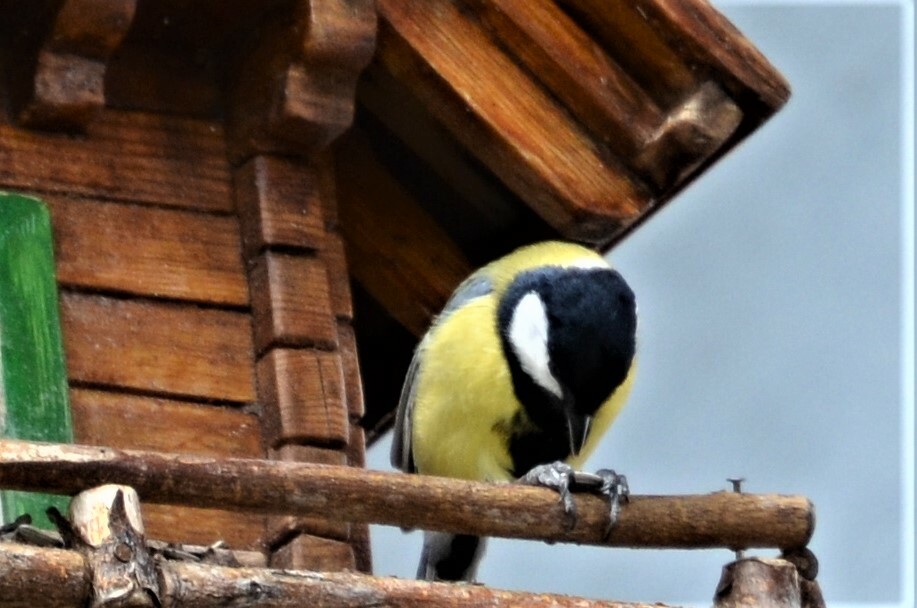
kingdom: Animalia
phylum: Chordata
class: Aves
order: Passeriformes
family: Paridae
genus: Parus
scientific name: Parus major
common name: Great tit
